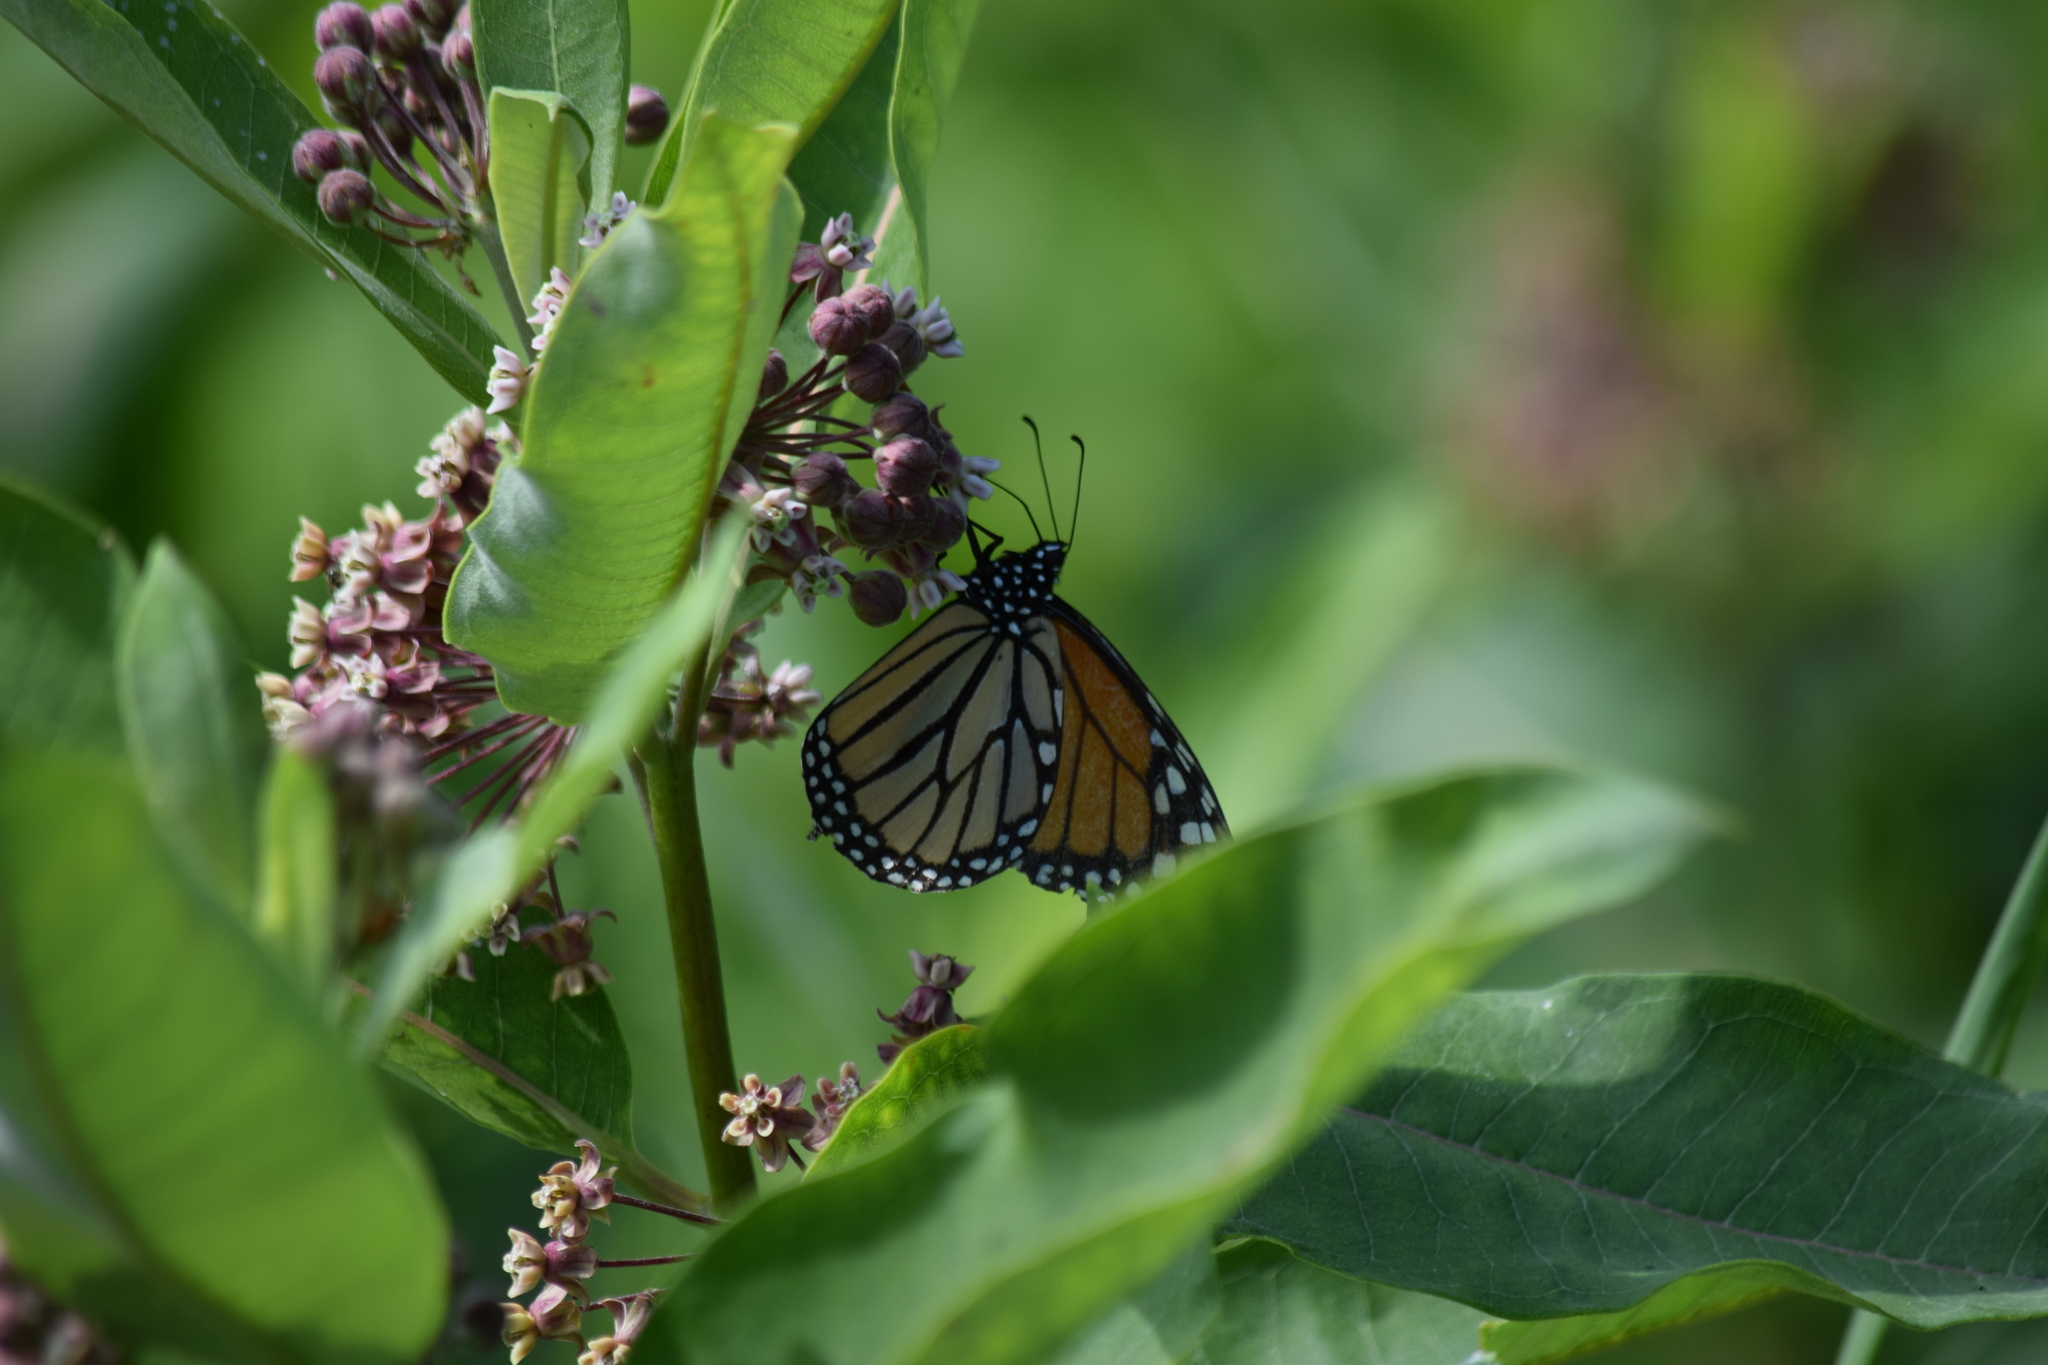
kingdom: Animalia
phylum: Arthropoda
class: Insecta
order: Lepidoptera
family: Nymphalidae
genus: Danaus
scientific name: Danaus plexippus
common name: Monarch
